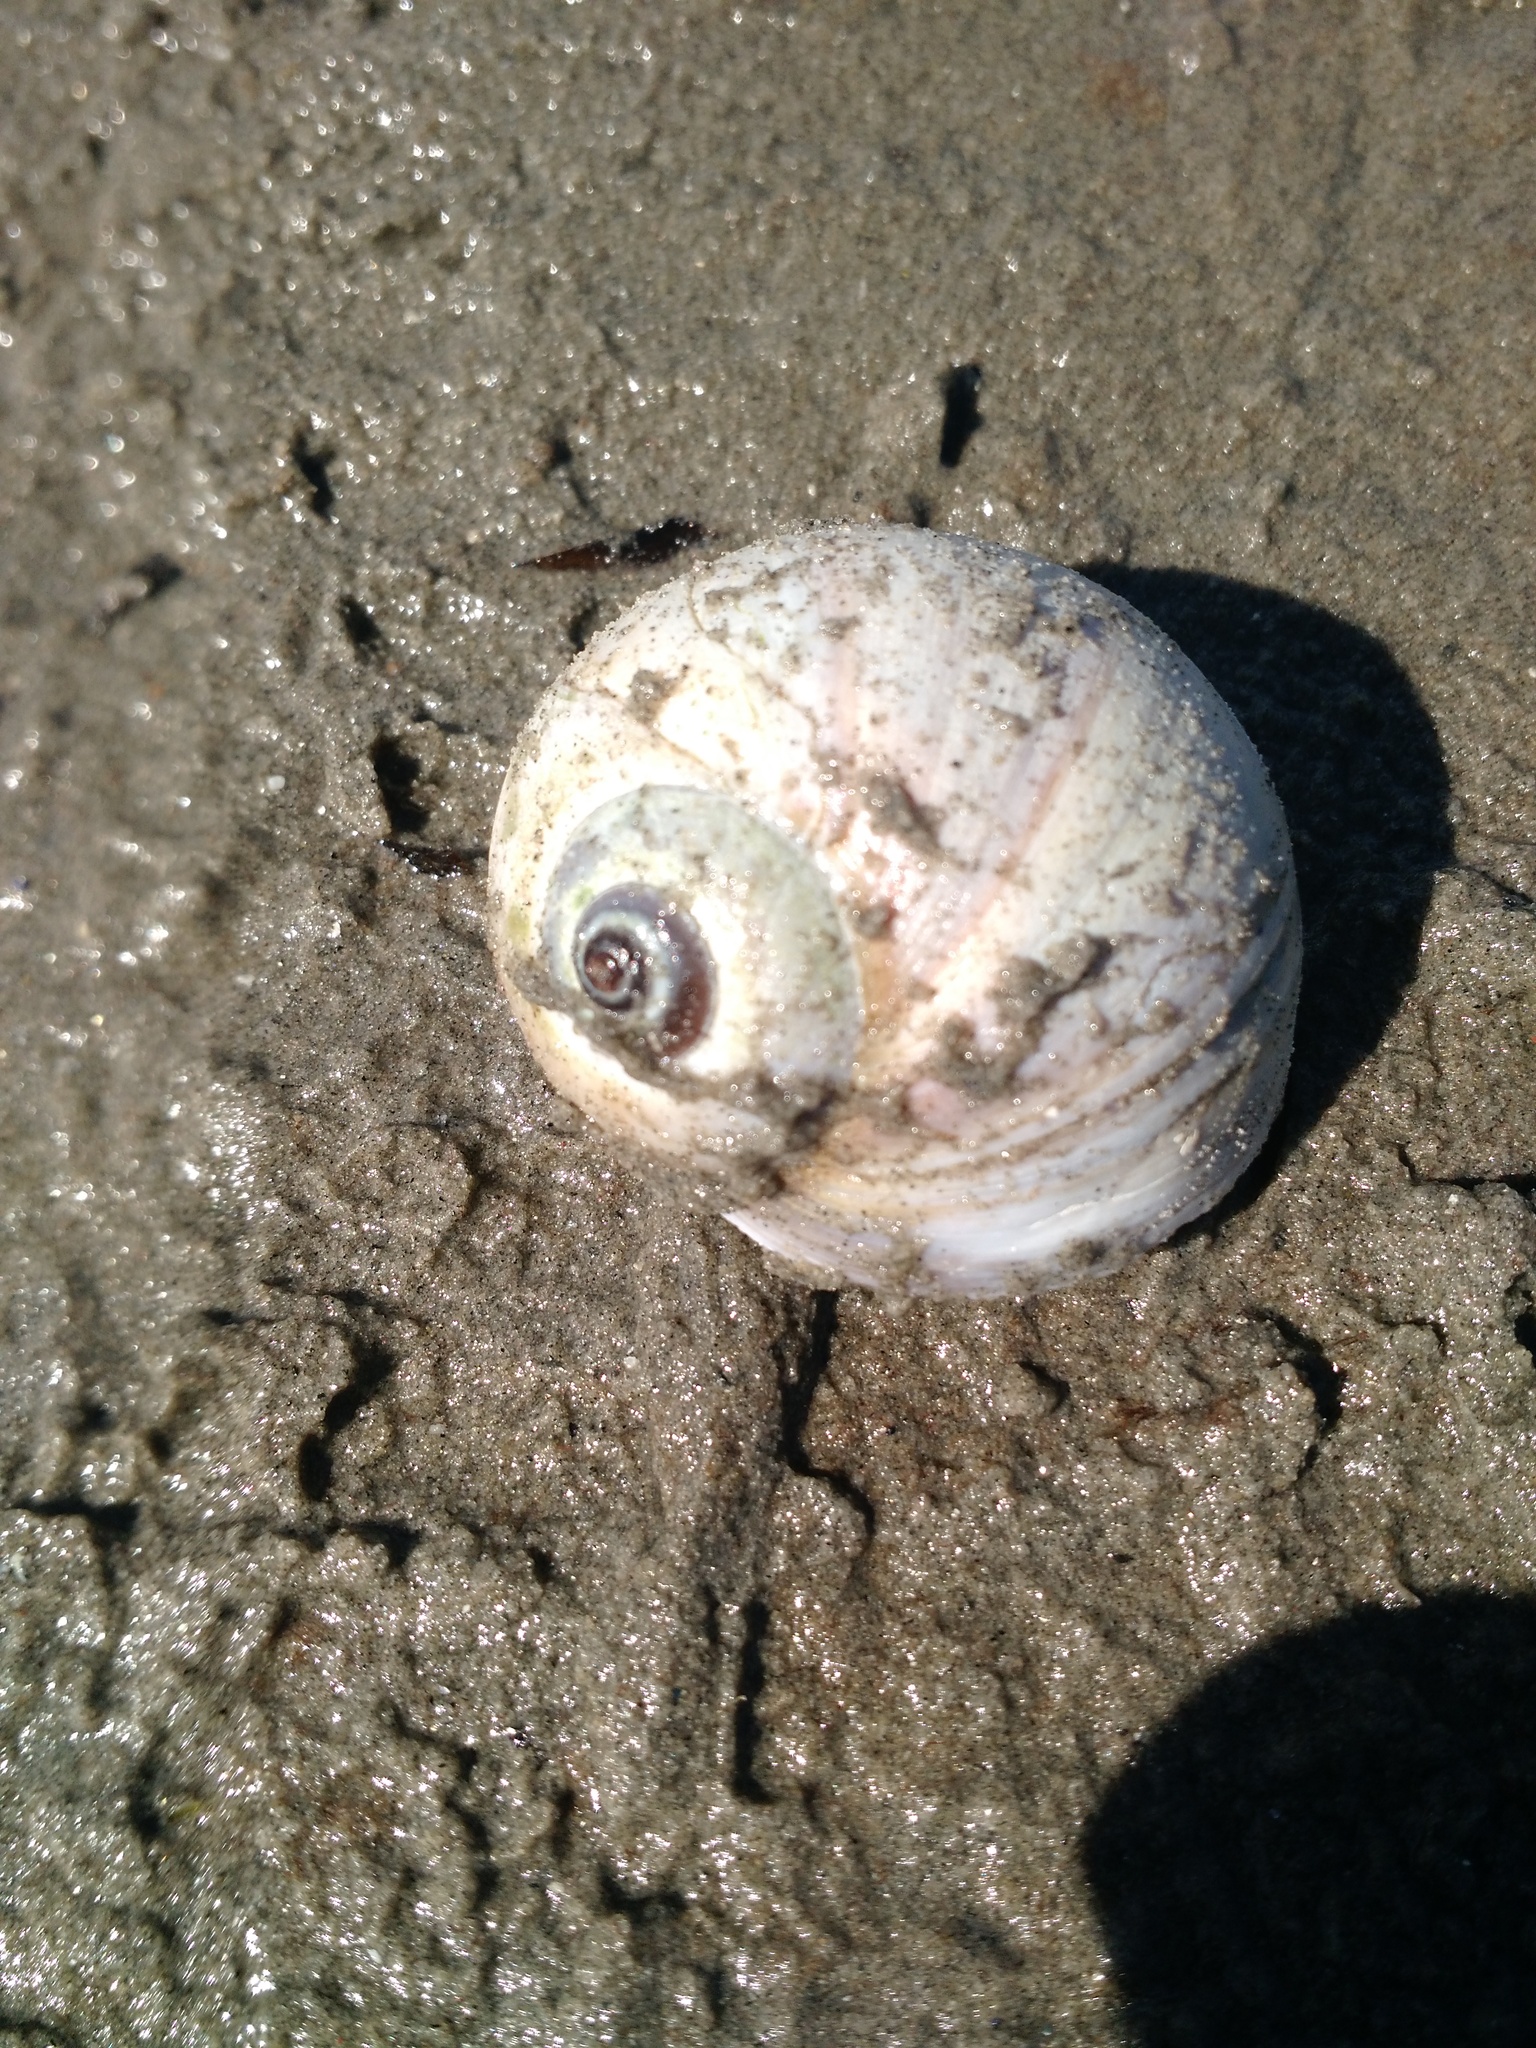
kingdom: Animalia
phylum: Mollusca
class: Gastropoda
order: Littorinimorpha
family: Naticidae
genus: Euspira
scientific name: Euspira heros
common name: Common northern moonsnail
